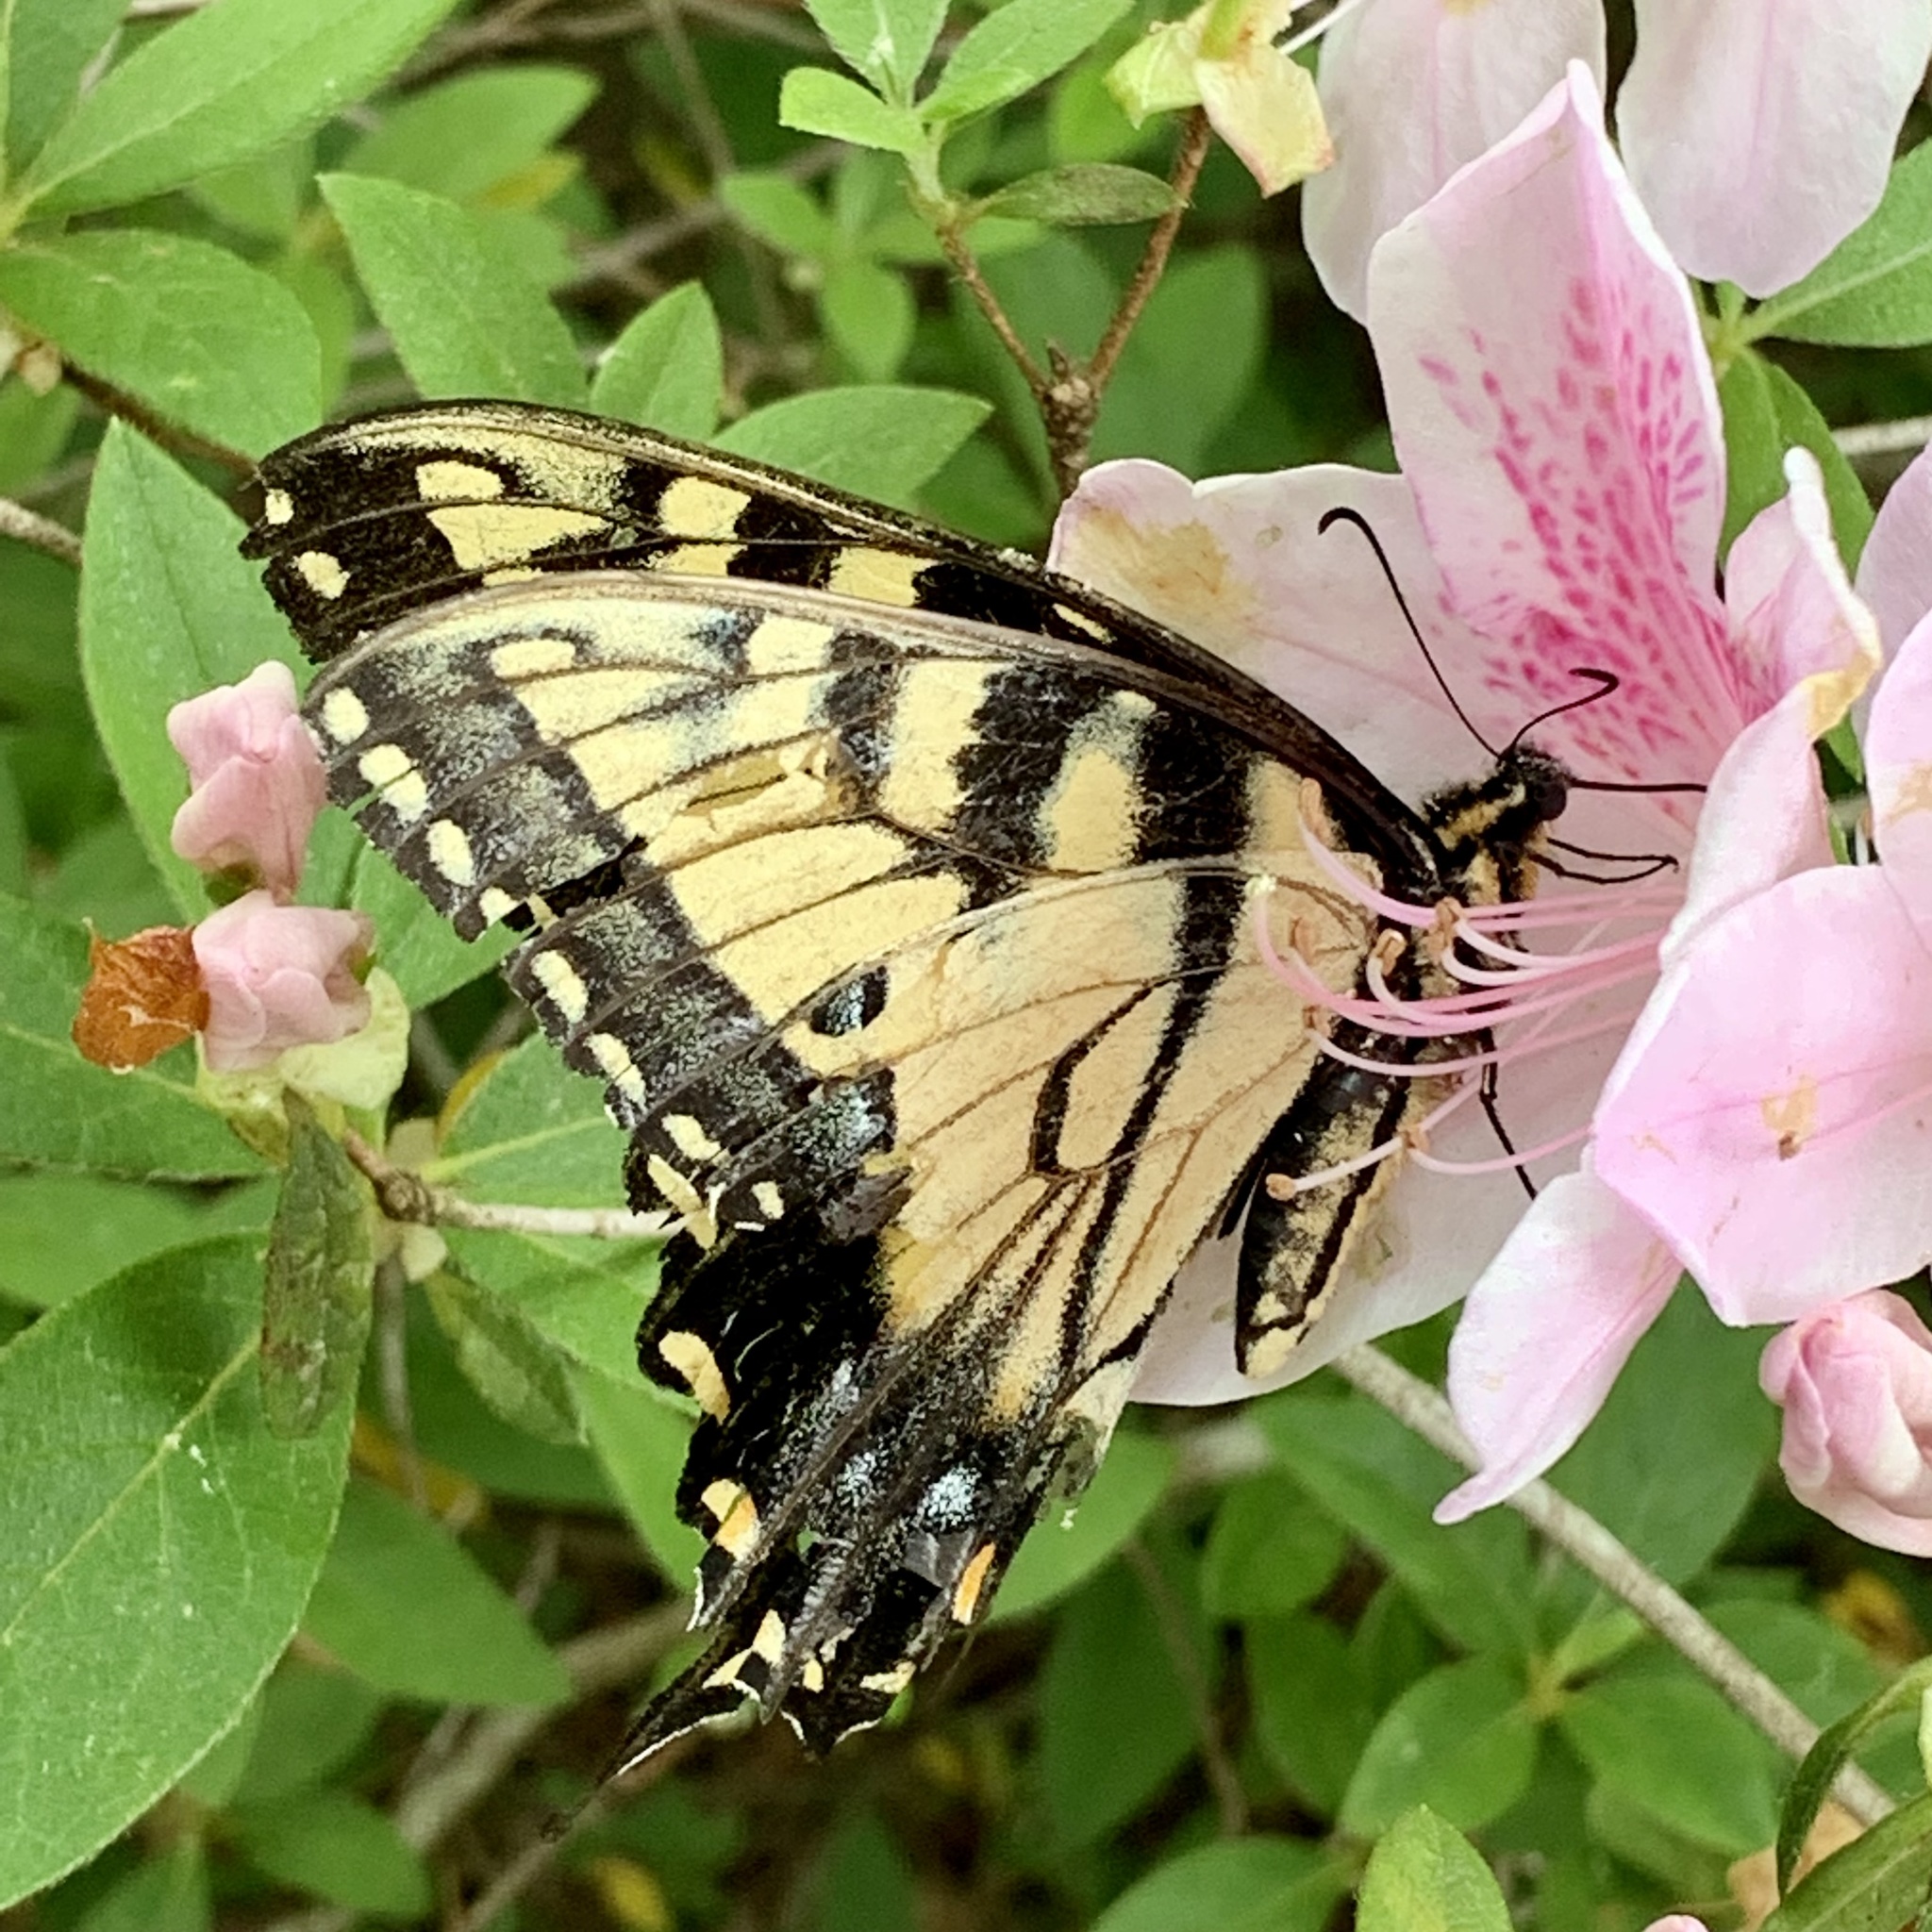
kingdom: Animalia
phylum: Arthropoda
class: Insecta
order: Lepidoptera
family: Papilionidae
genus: Papilio
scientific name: Papilio glaucus
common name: Tiger swallowtail
